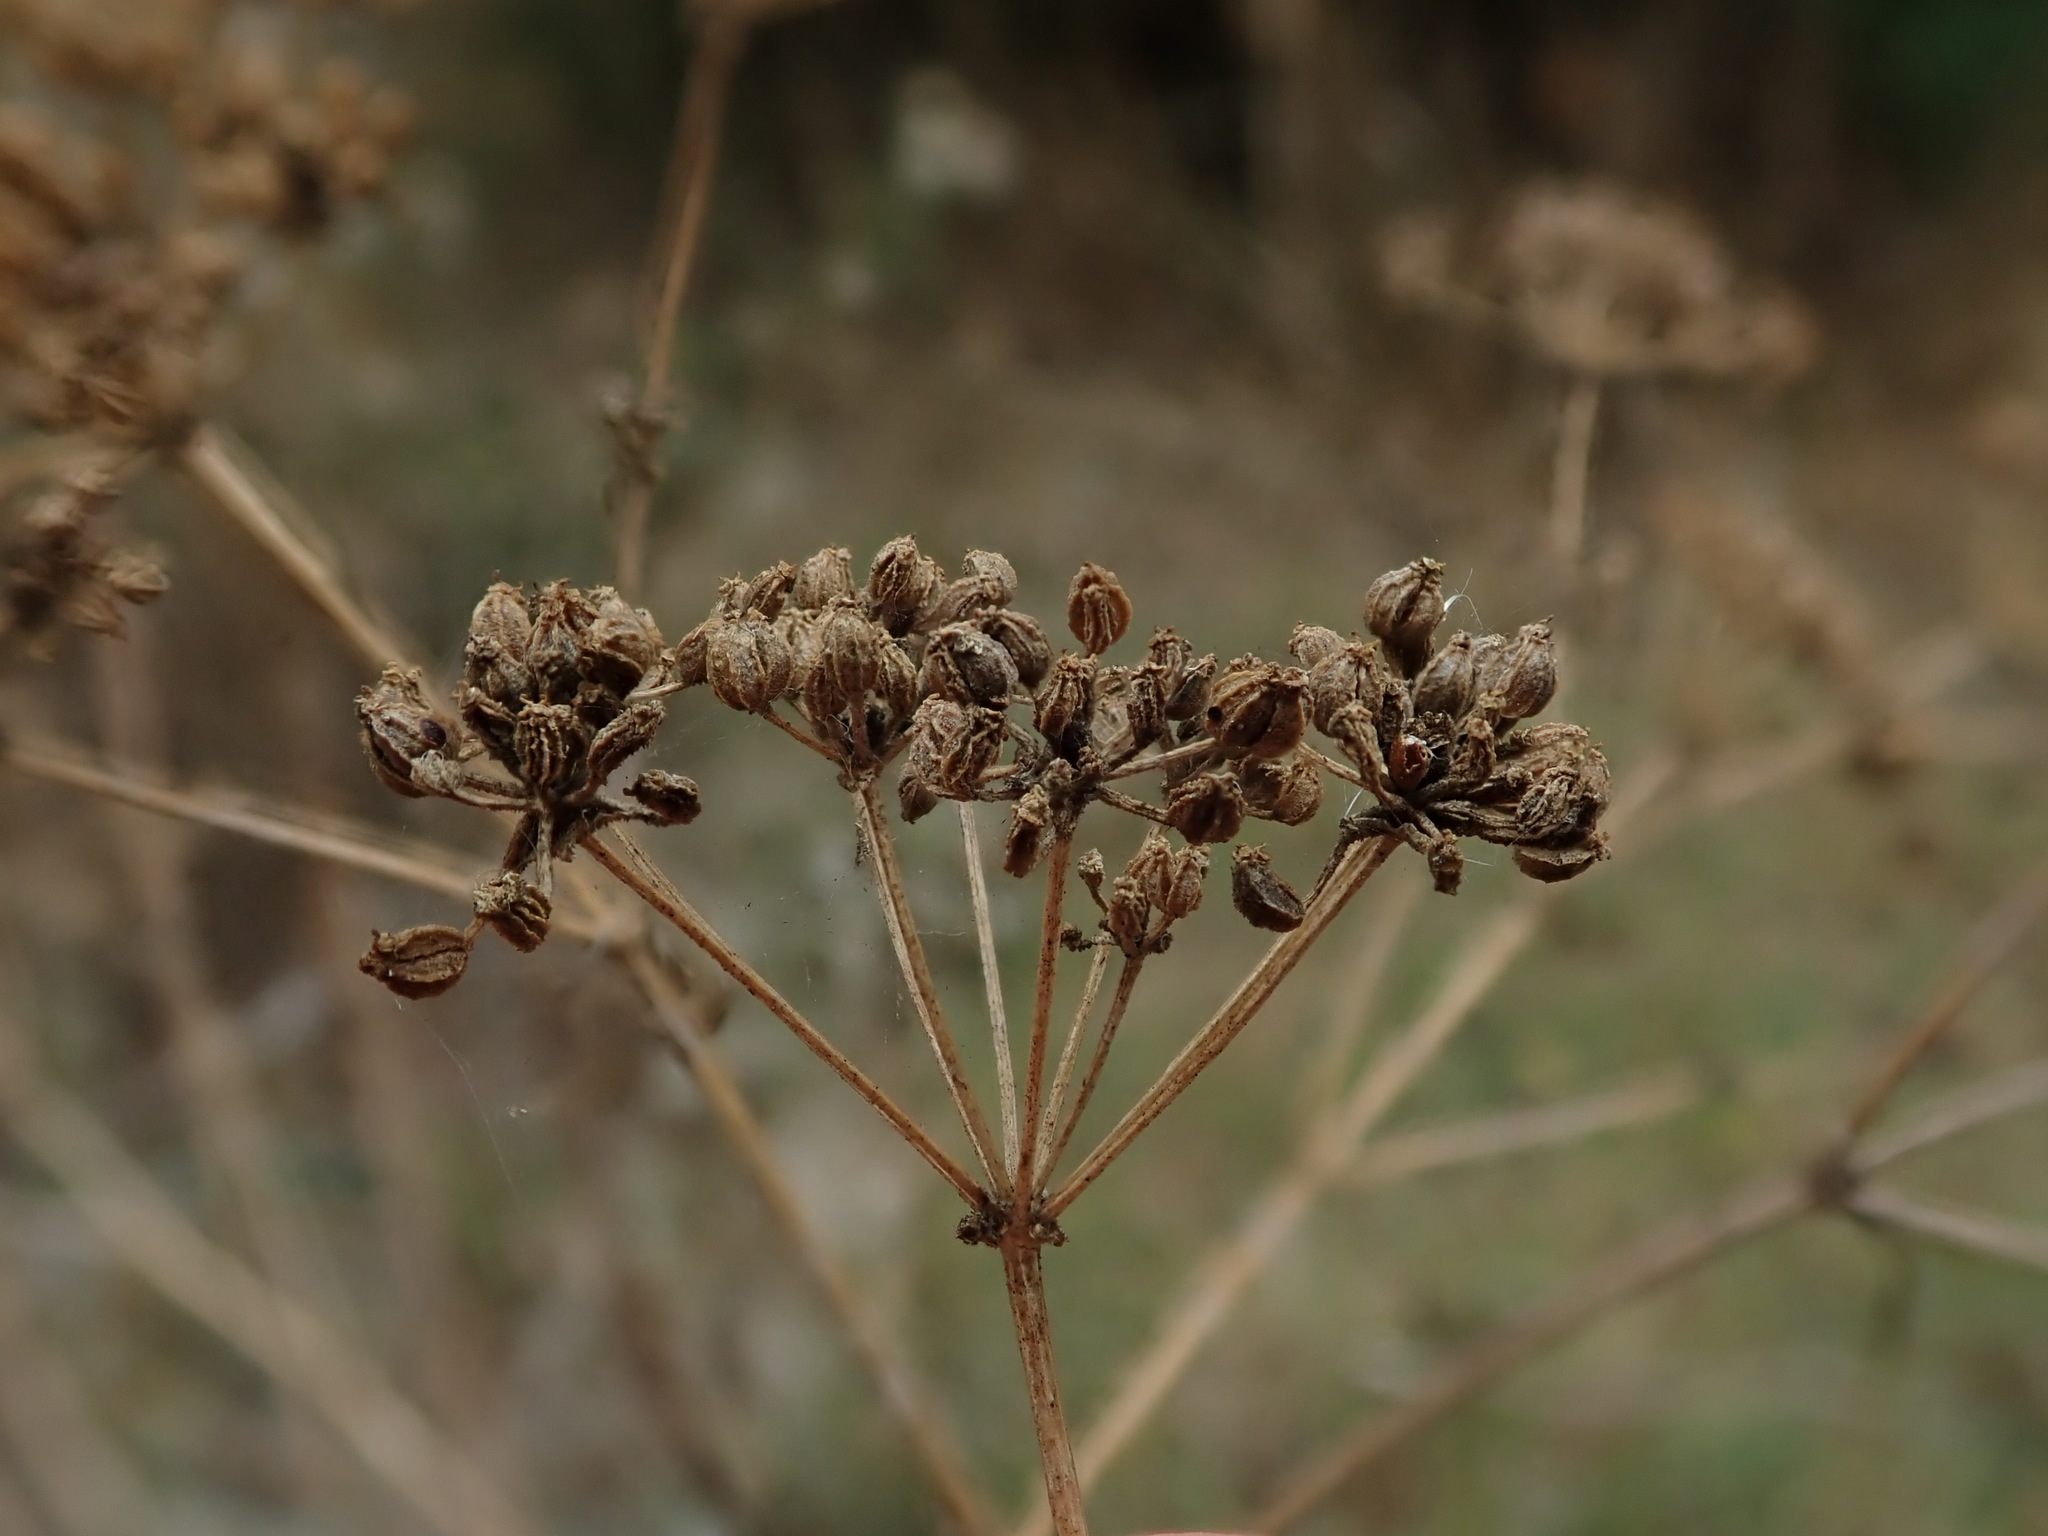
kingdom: Plantae
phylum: Tracheophyta
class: Magnoliopsida
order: Apiales
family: Apiaceae
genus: Conium
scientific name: Conium maculatum
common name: Hemlock
